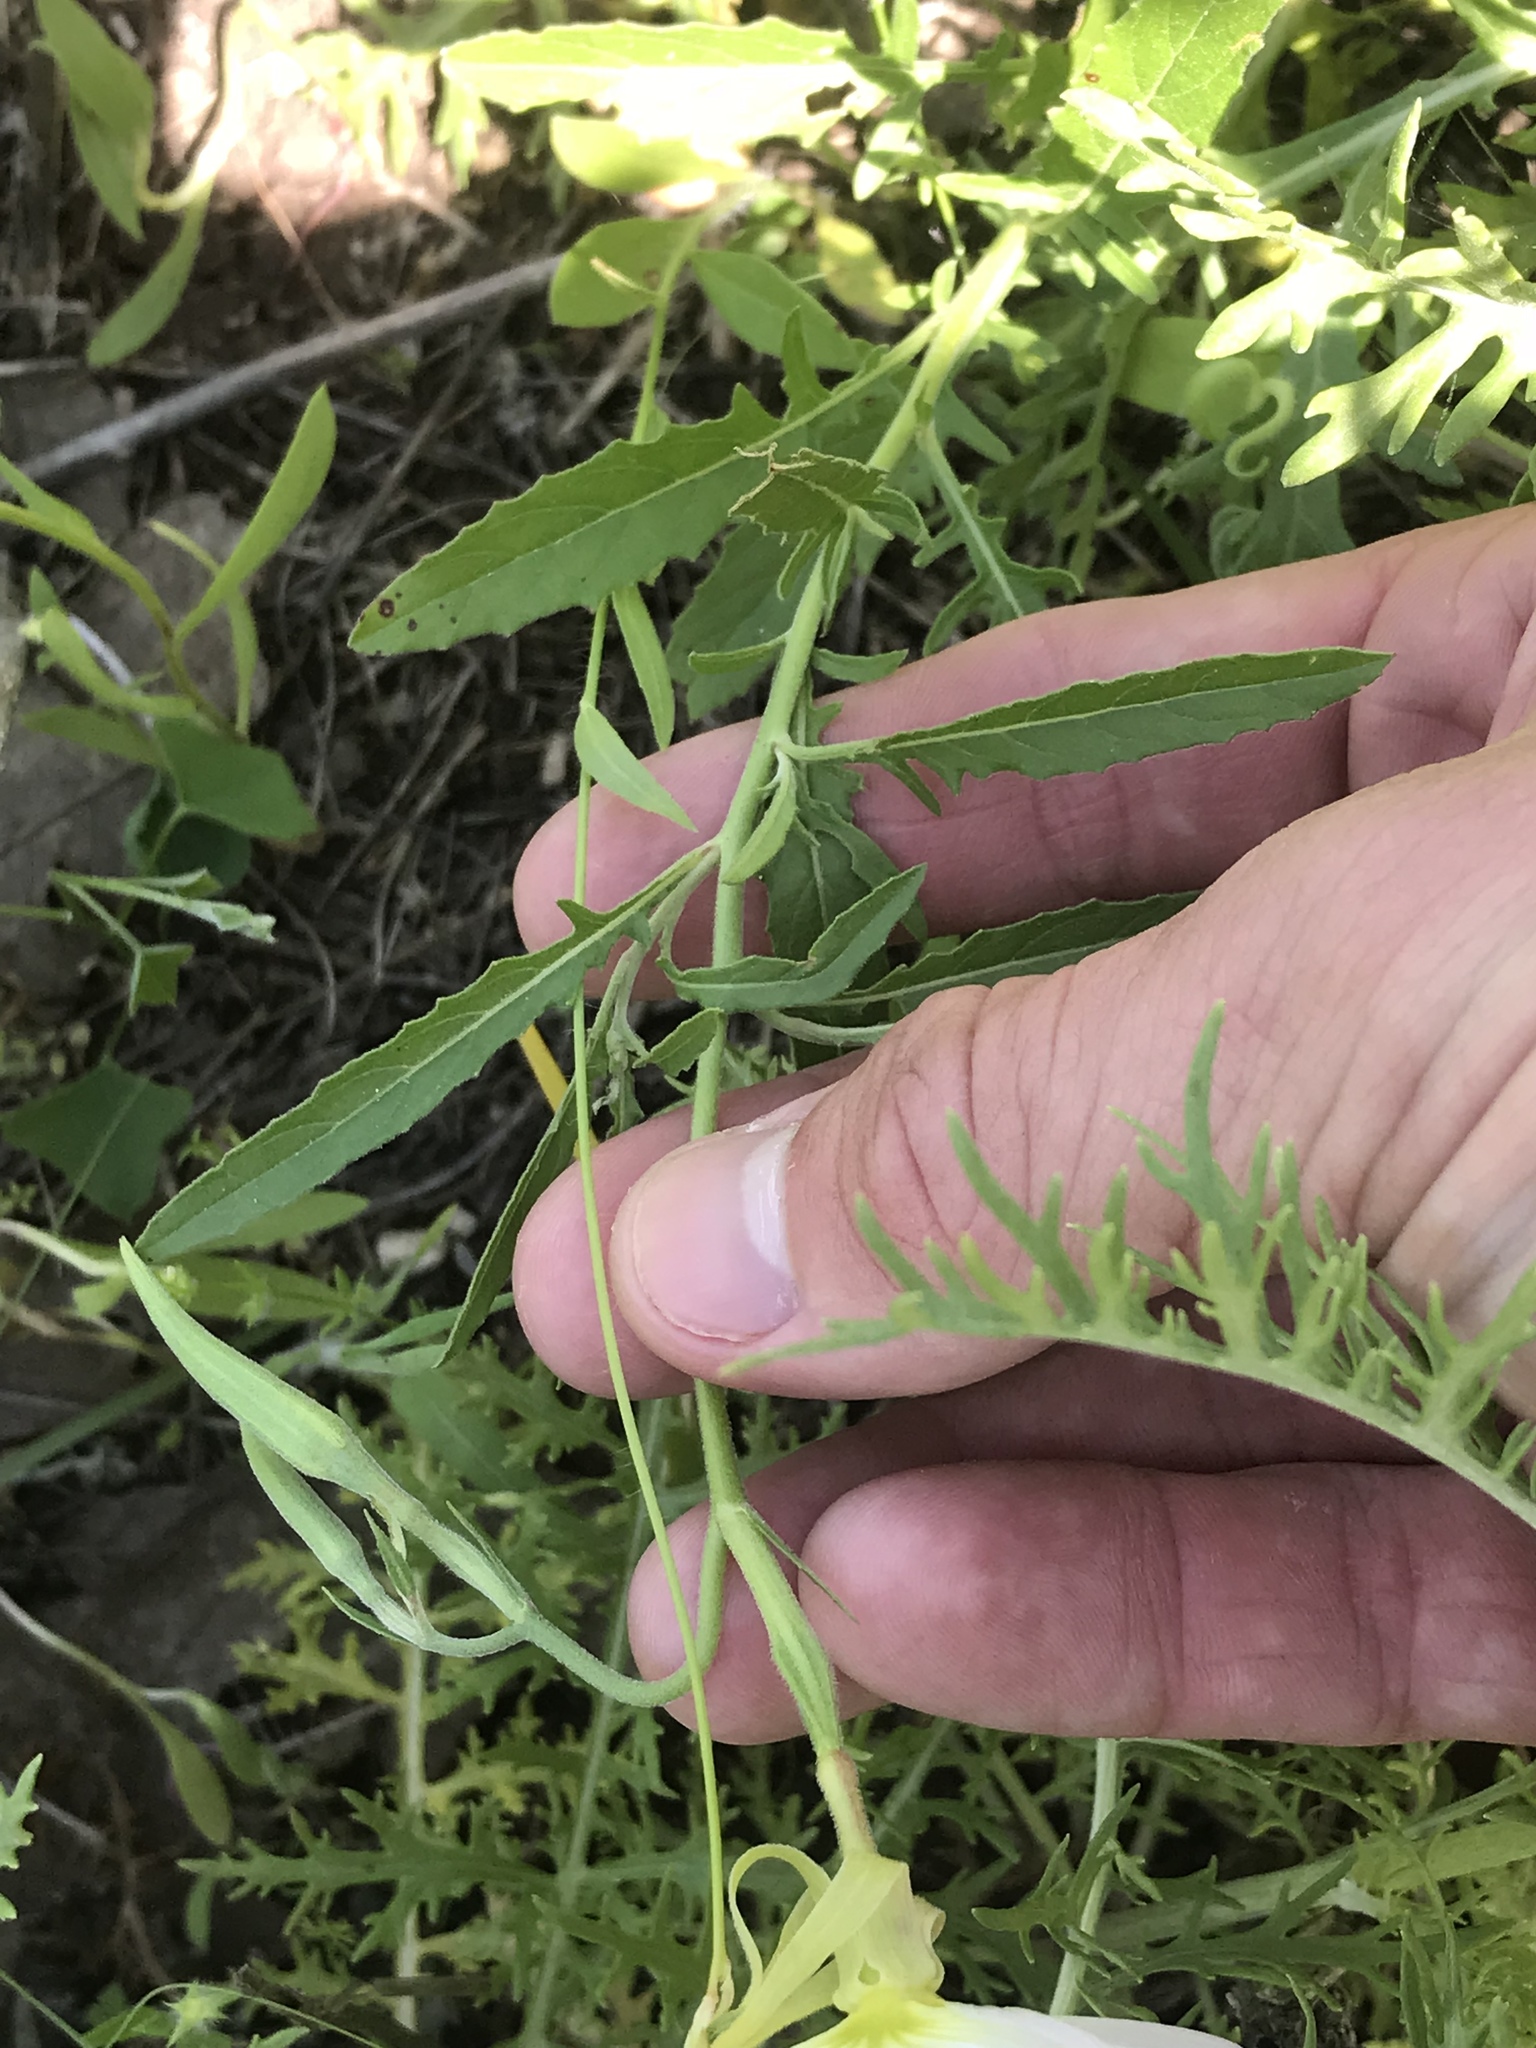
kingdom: Plantae
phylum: Tracheophyta
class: Magnoliopsida
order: Myrtales
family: Onagraceae
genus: Oenothera
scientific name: Oenothera speciosa
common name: White evening-primrose
